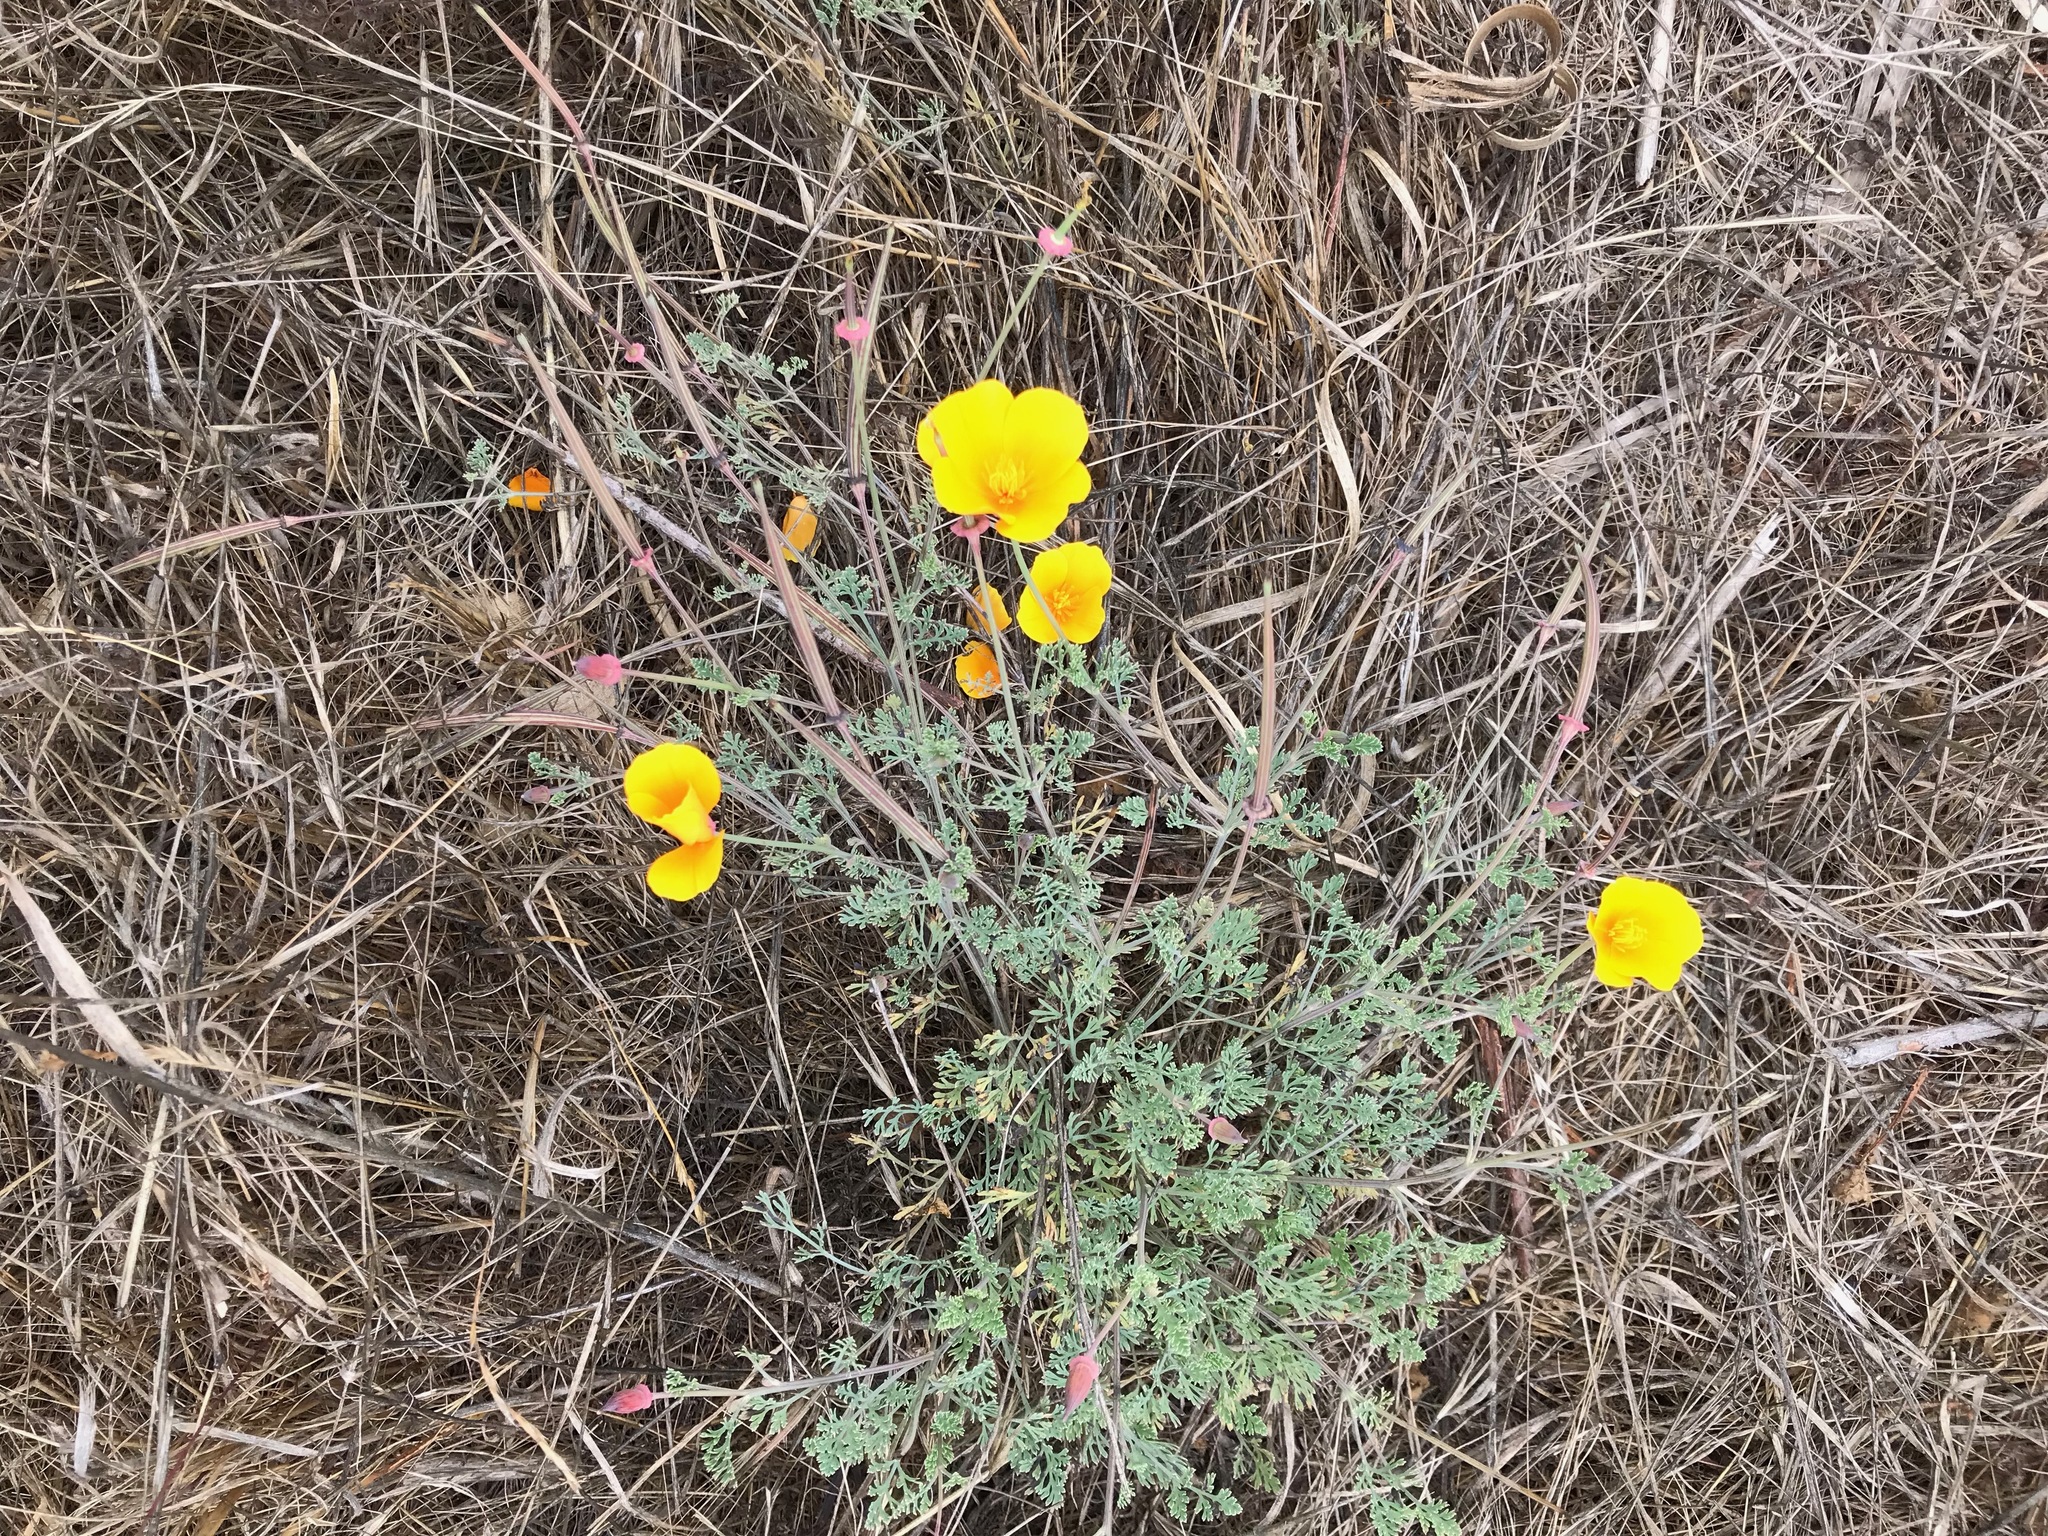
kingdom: Plantae
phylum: Tracheophyta
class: Magnoliopsida
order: Ranunculales
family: Papaveraceae
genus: Eschscholzia
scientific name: Eschscholzia californica
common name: California poppy
